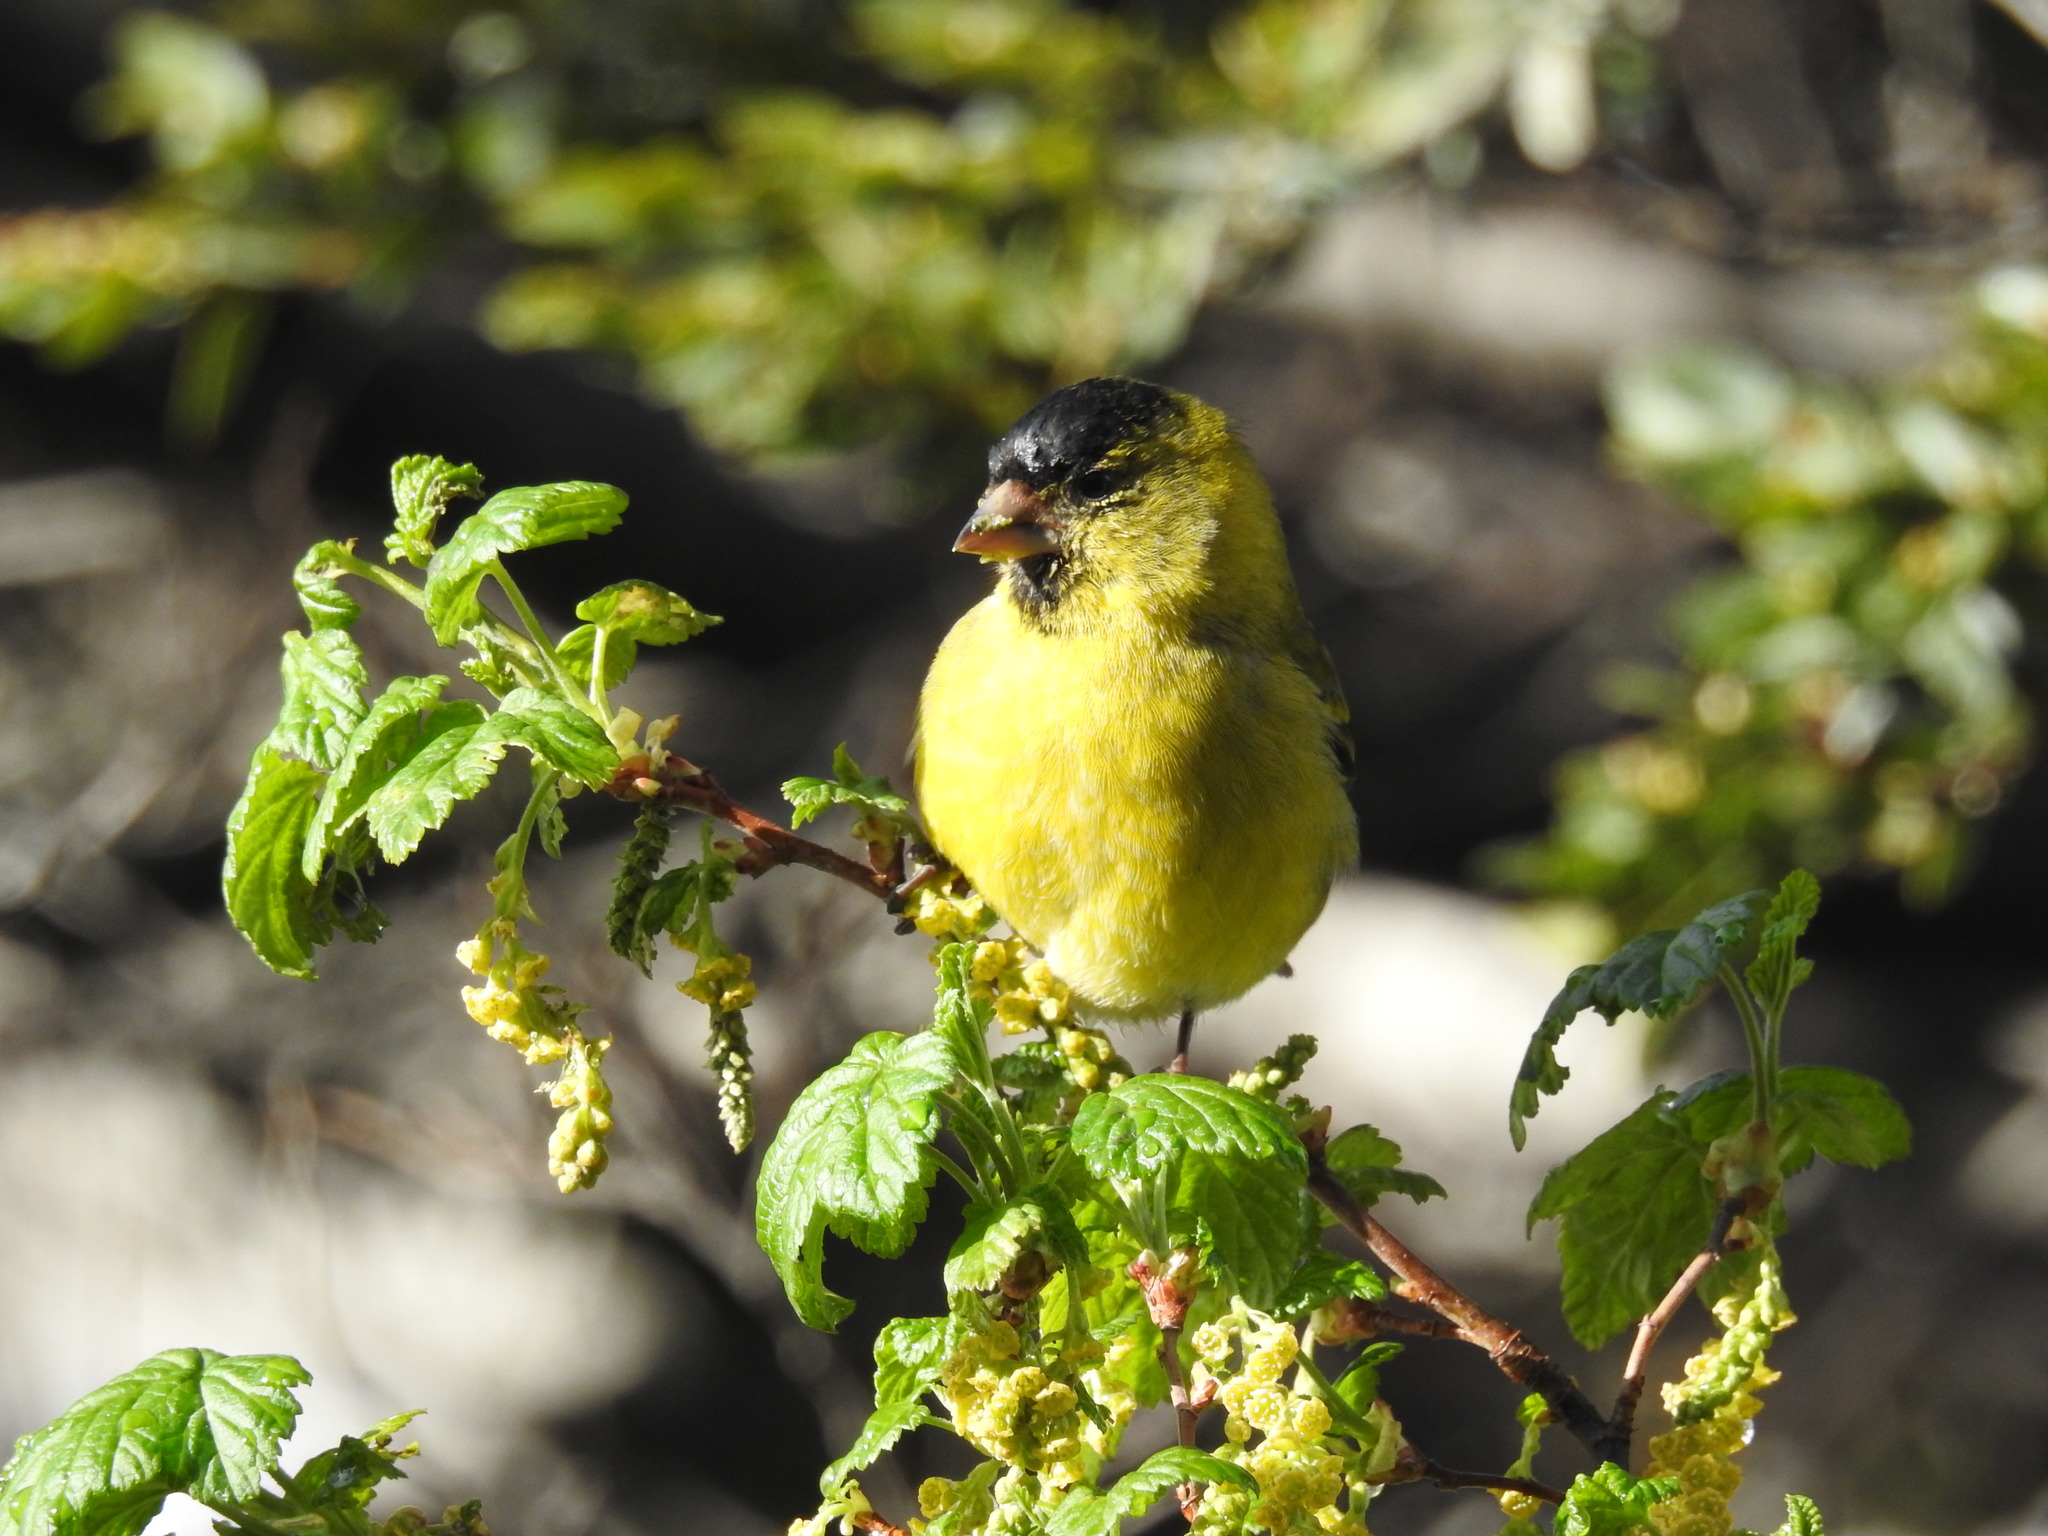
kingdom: Animalia
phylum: Chordata
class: Aves
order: Passeriformes
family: Fringillidae
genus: Spinus
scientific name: Spinus barbatus
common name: Black-chinned siskin
